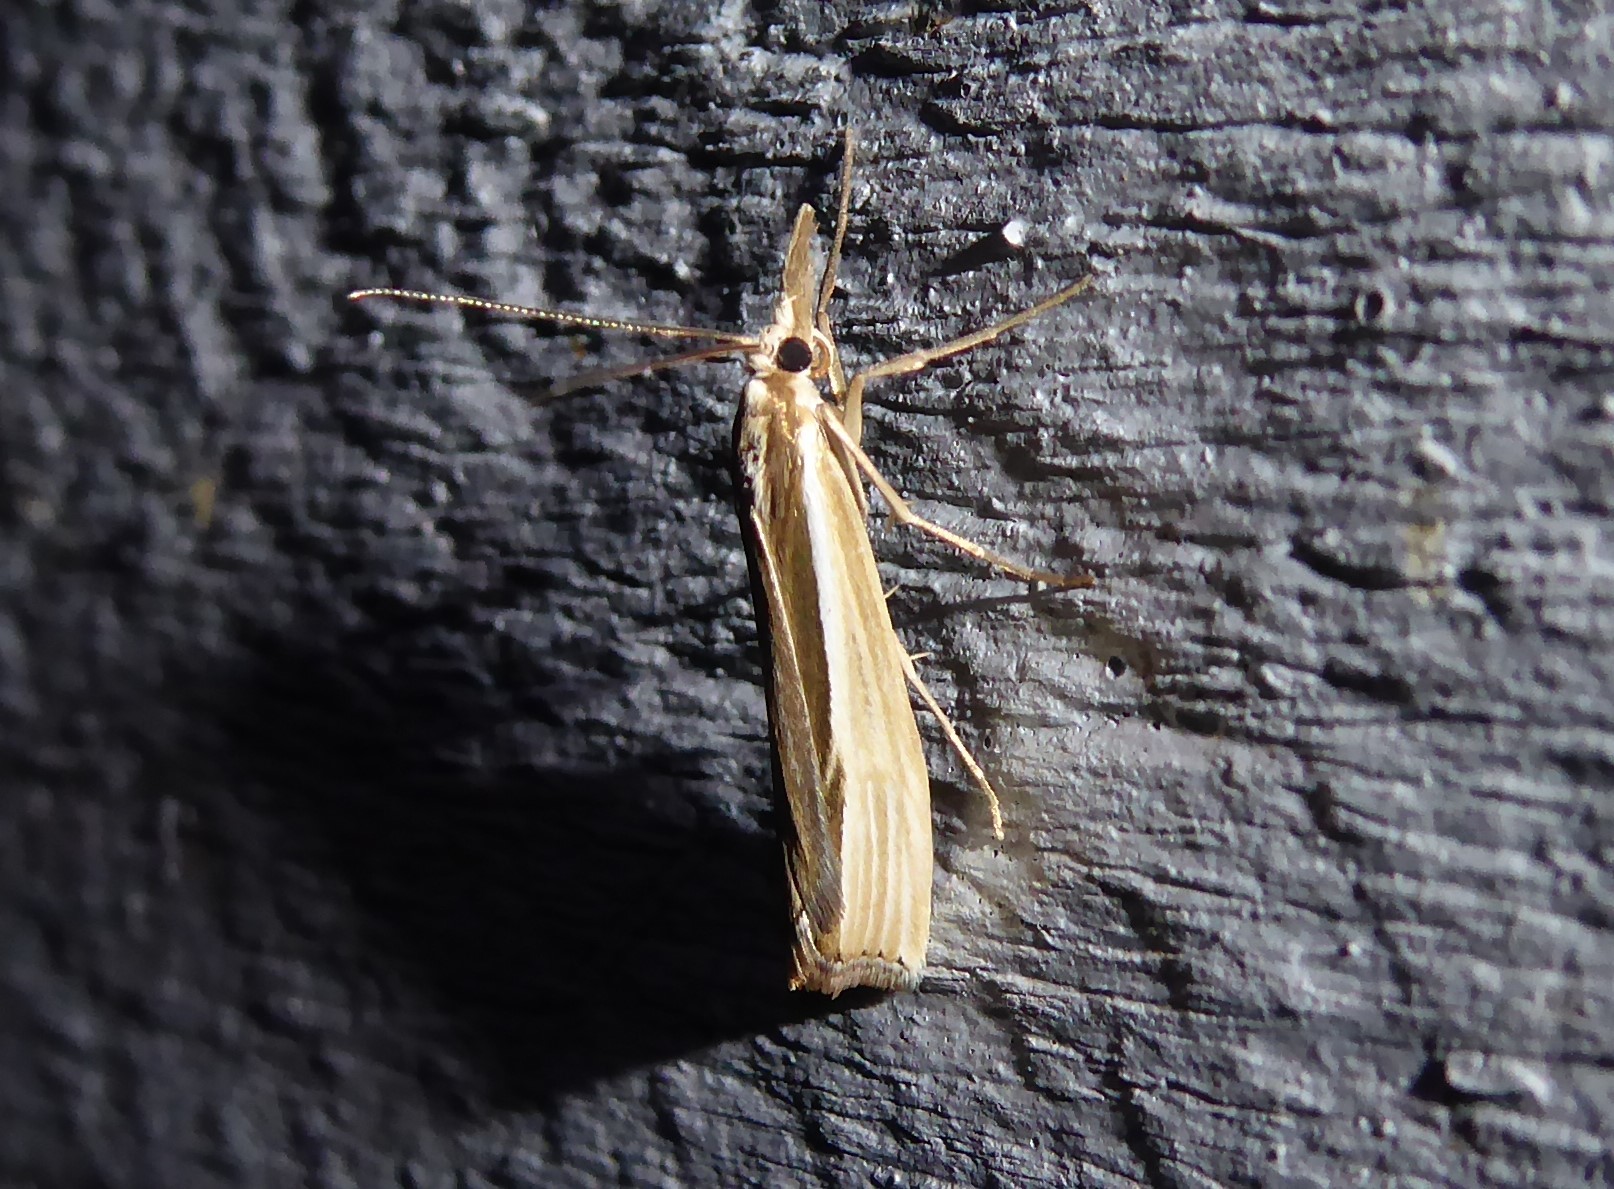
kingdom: Animalia
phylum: Arthropoda
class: Insecta
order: Lepidoptera
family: Crambidae
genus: Orocrambus
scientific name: Orocrambus ramosellus
